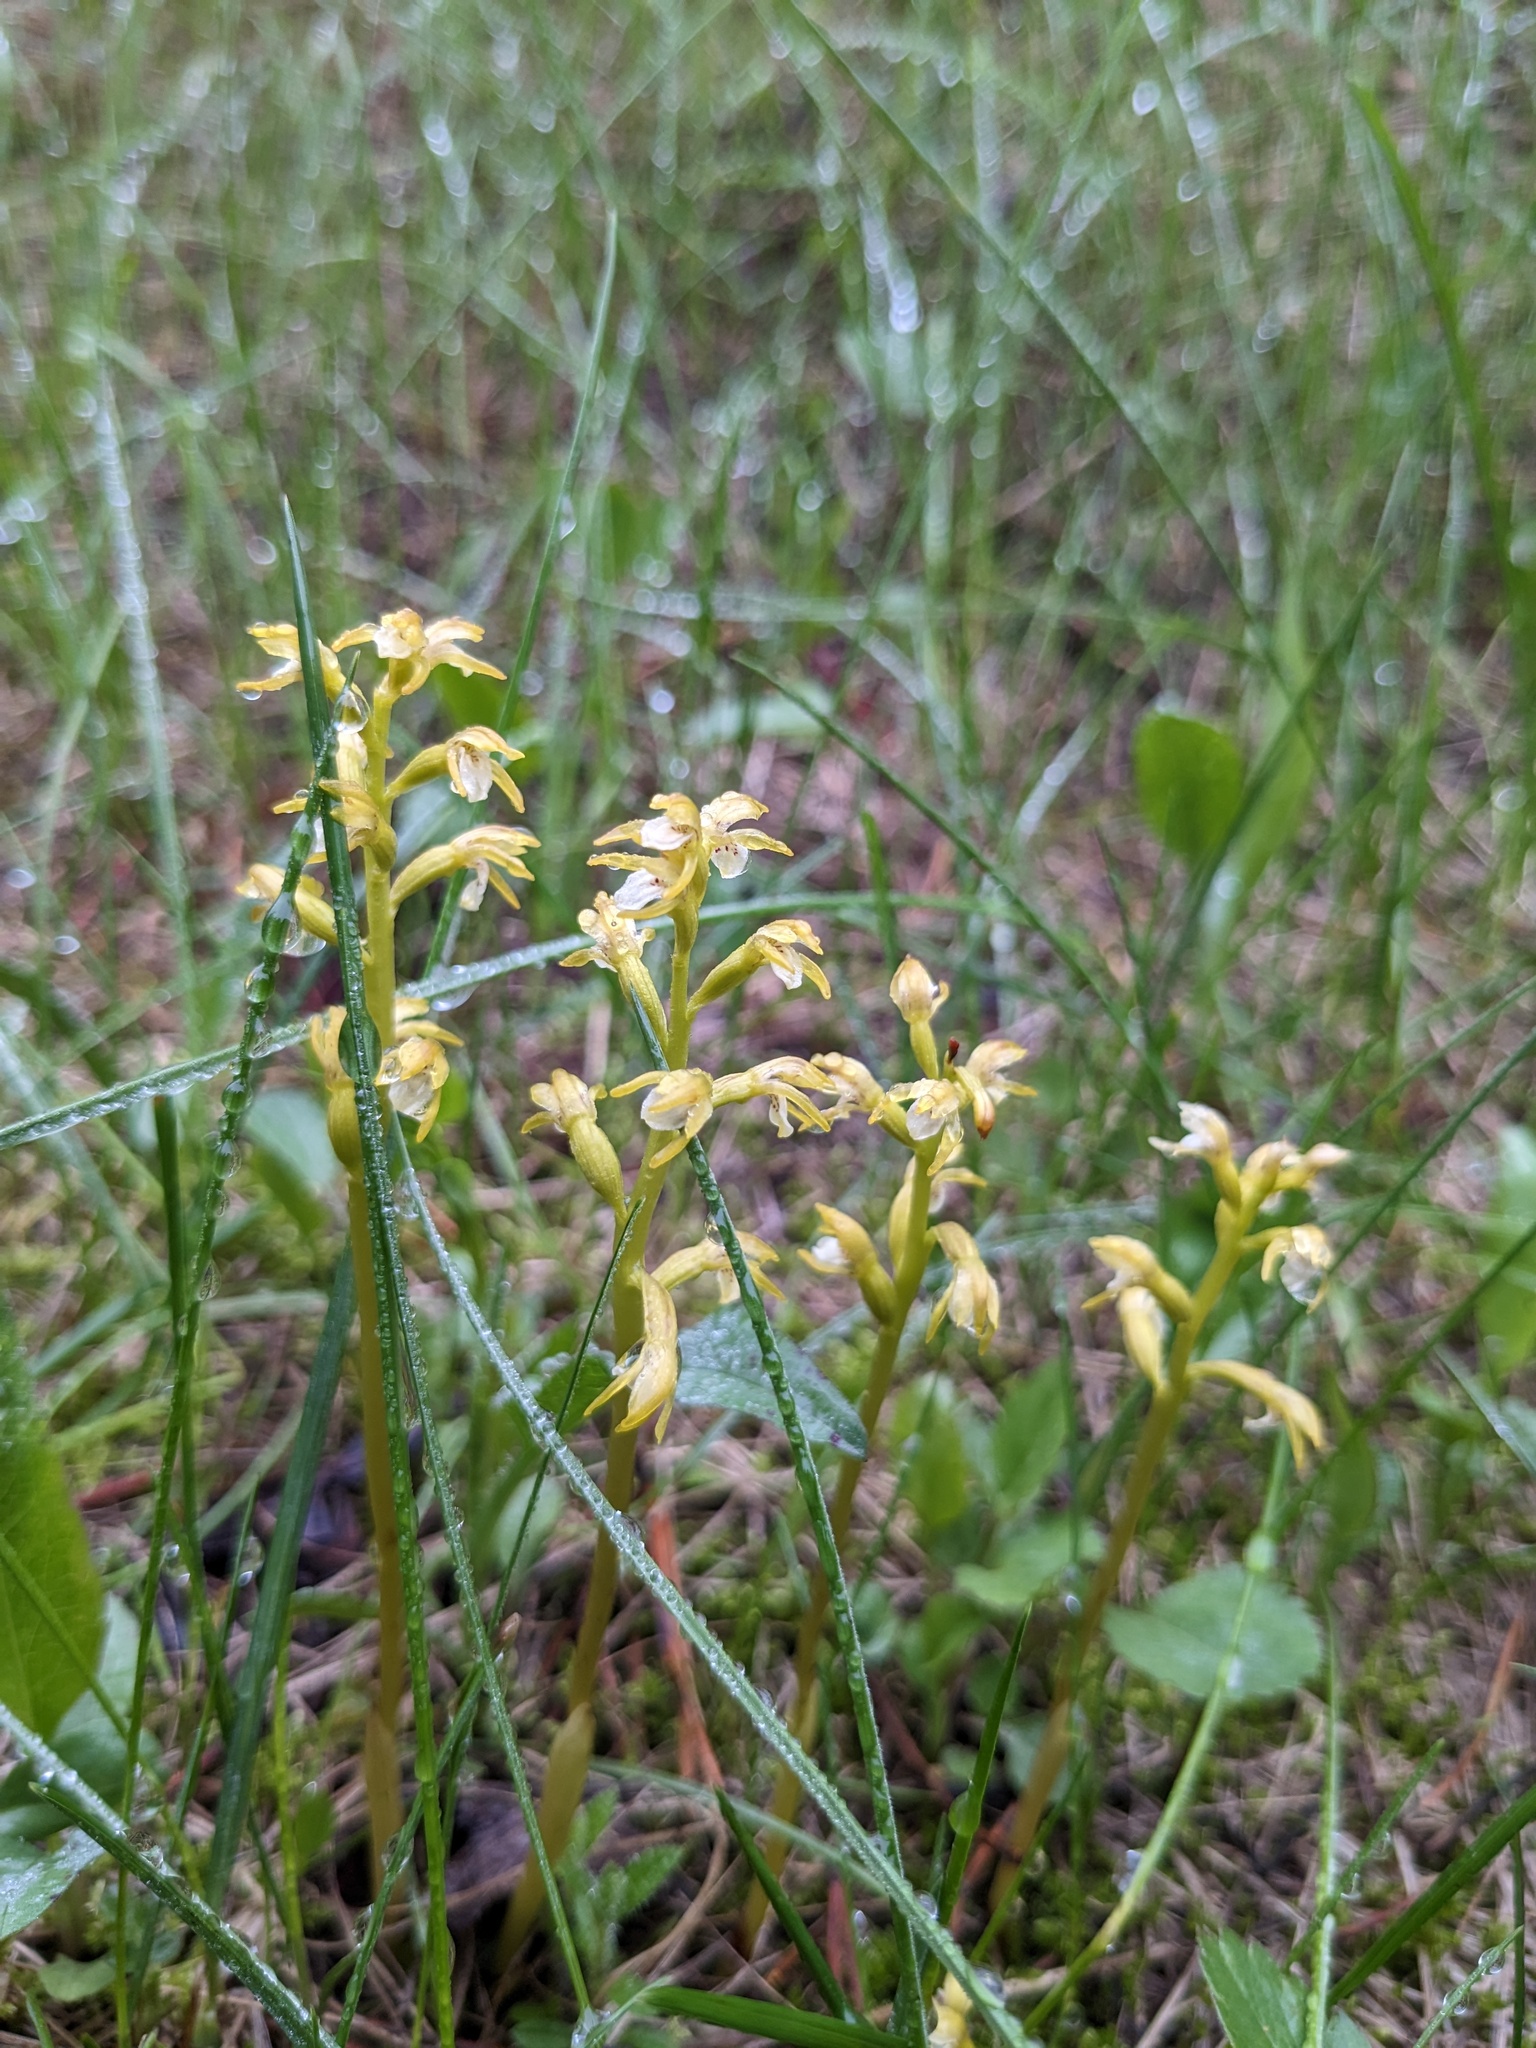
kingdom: Plantae
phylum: Tracheophyta
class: Liliopsida
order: Asparagales
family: Orchidaceae
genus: Corallorhiza
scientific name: Corallorhiza trifida
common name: Yellow coralroot
